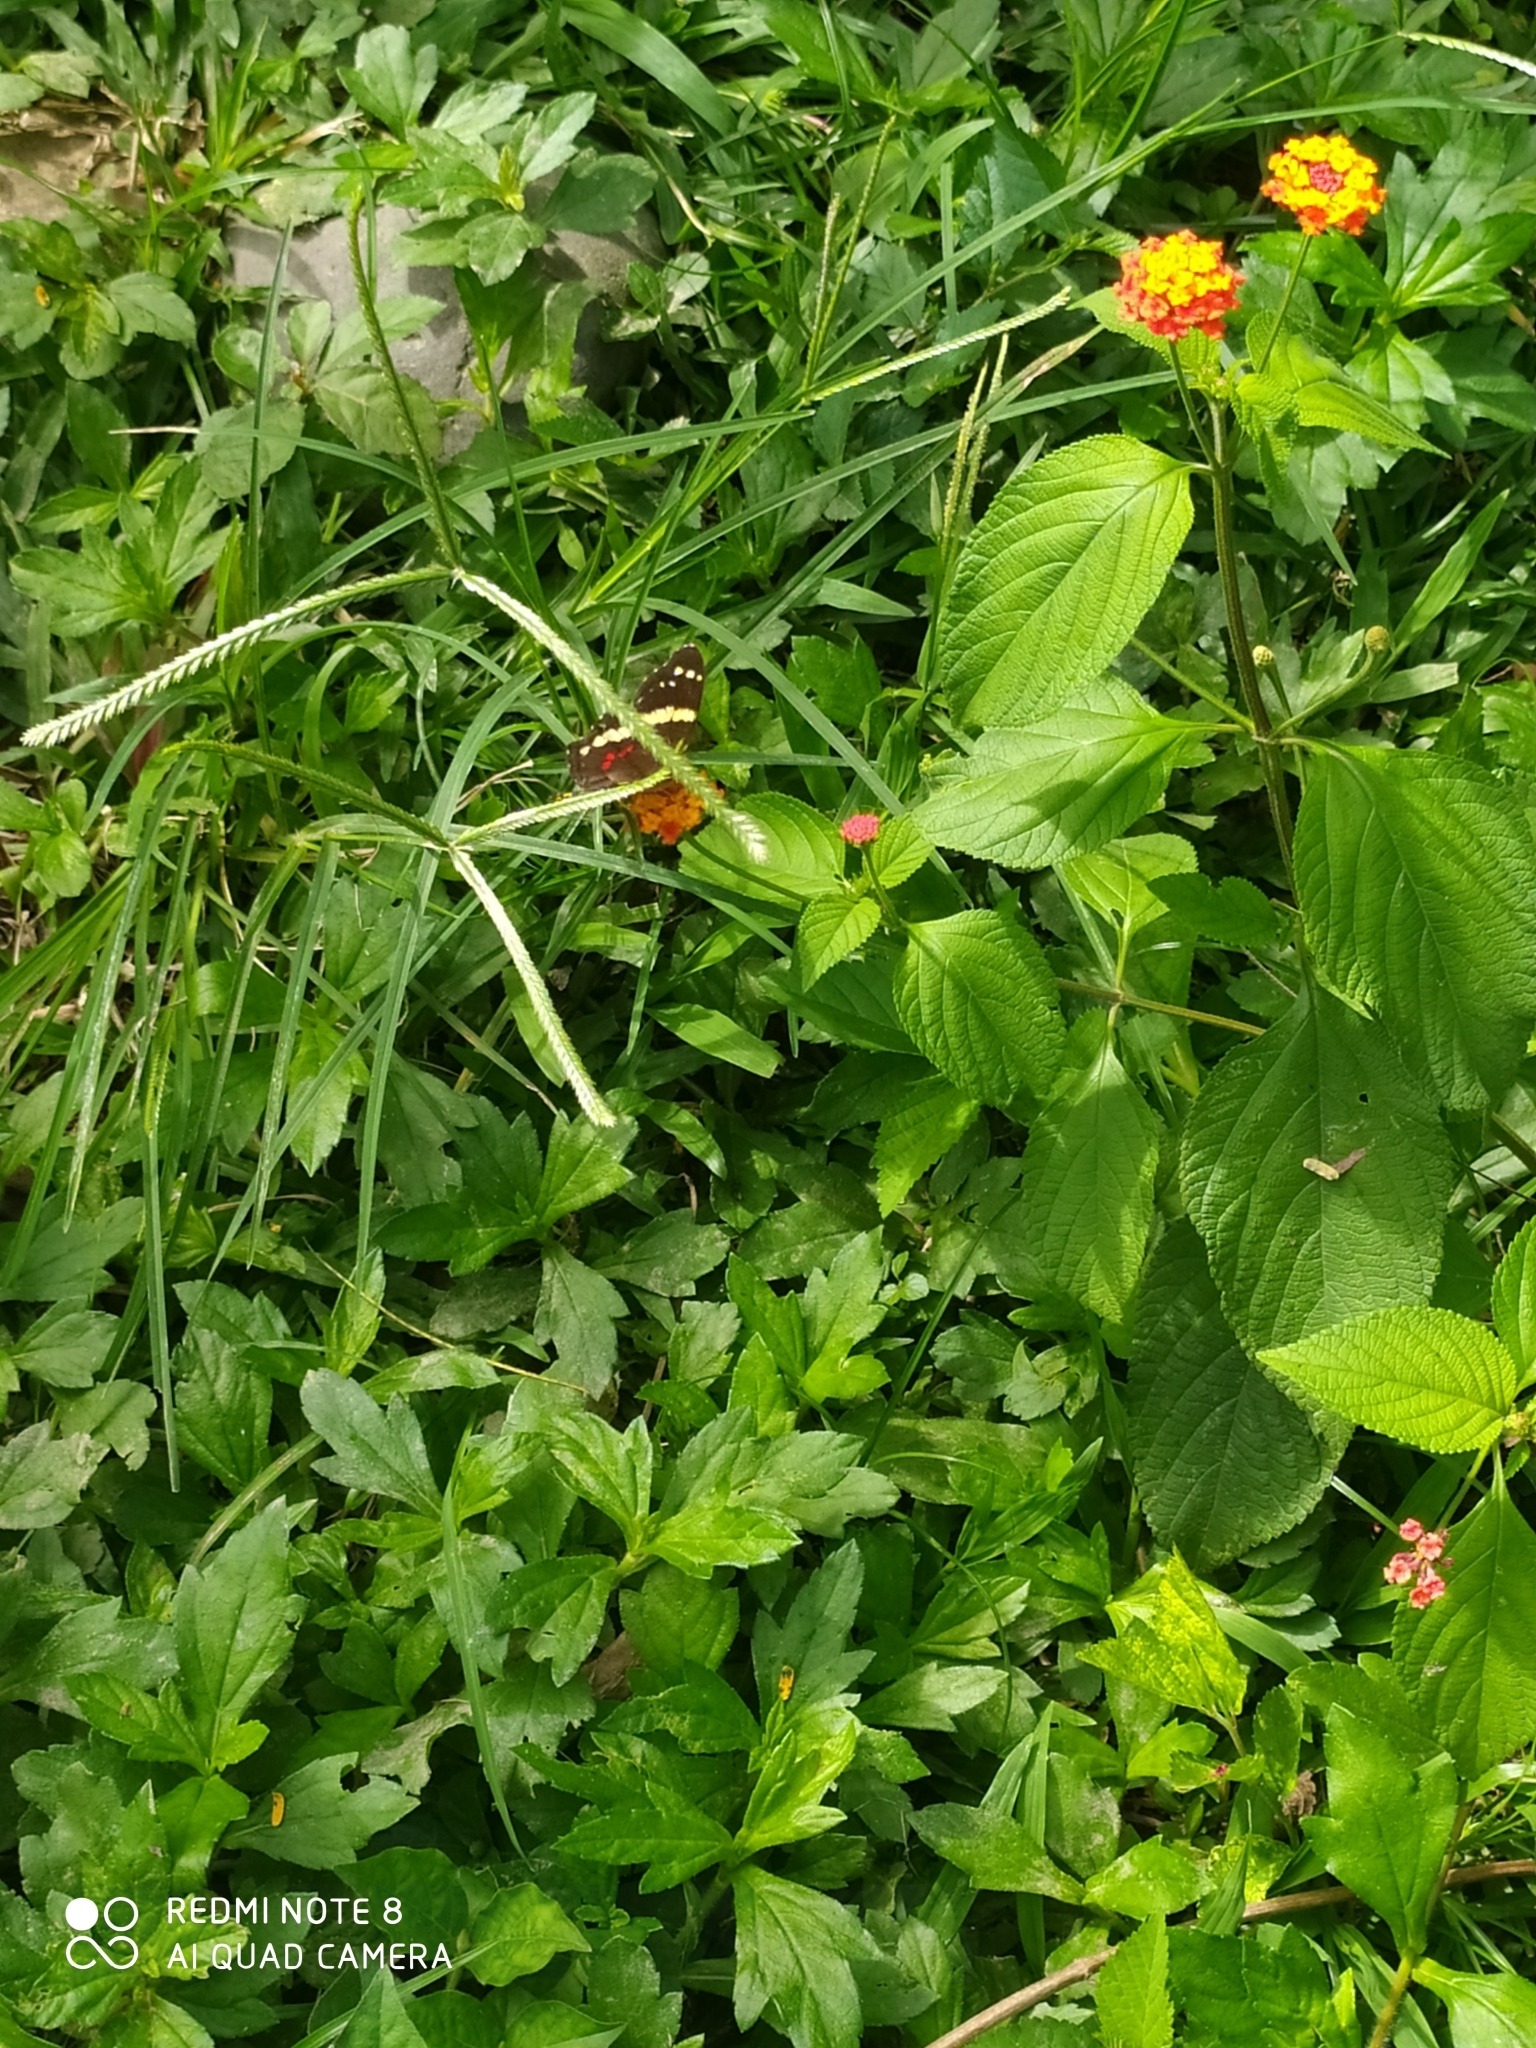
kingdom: Animalia
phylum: Arthropoda
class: Insecta
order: Lepidoptera
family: Nymphalidae
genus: Anartia
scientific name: Anartia fatima
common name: Banded peacock
